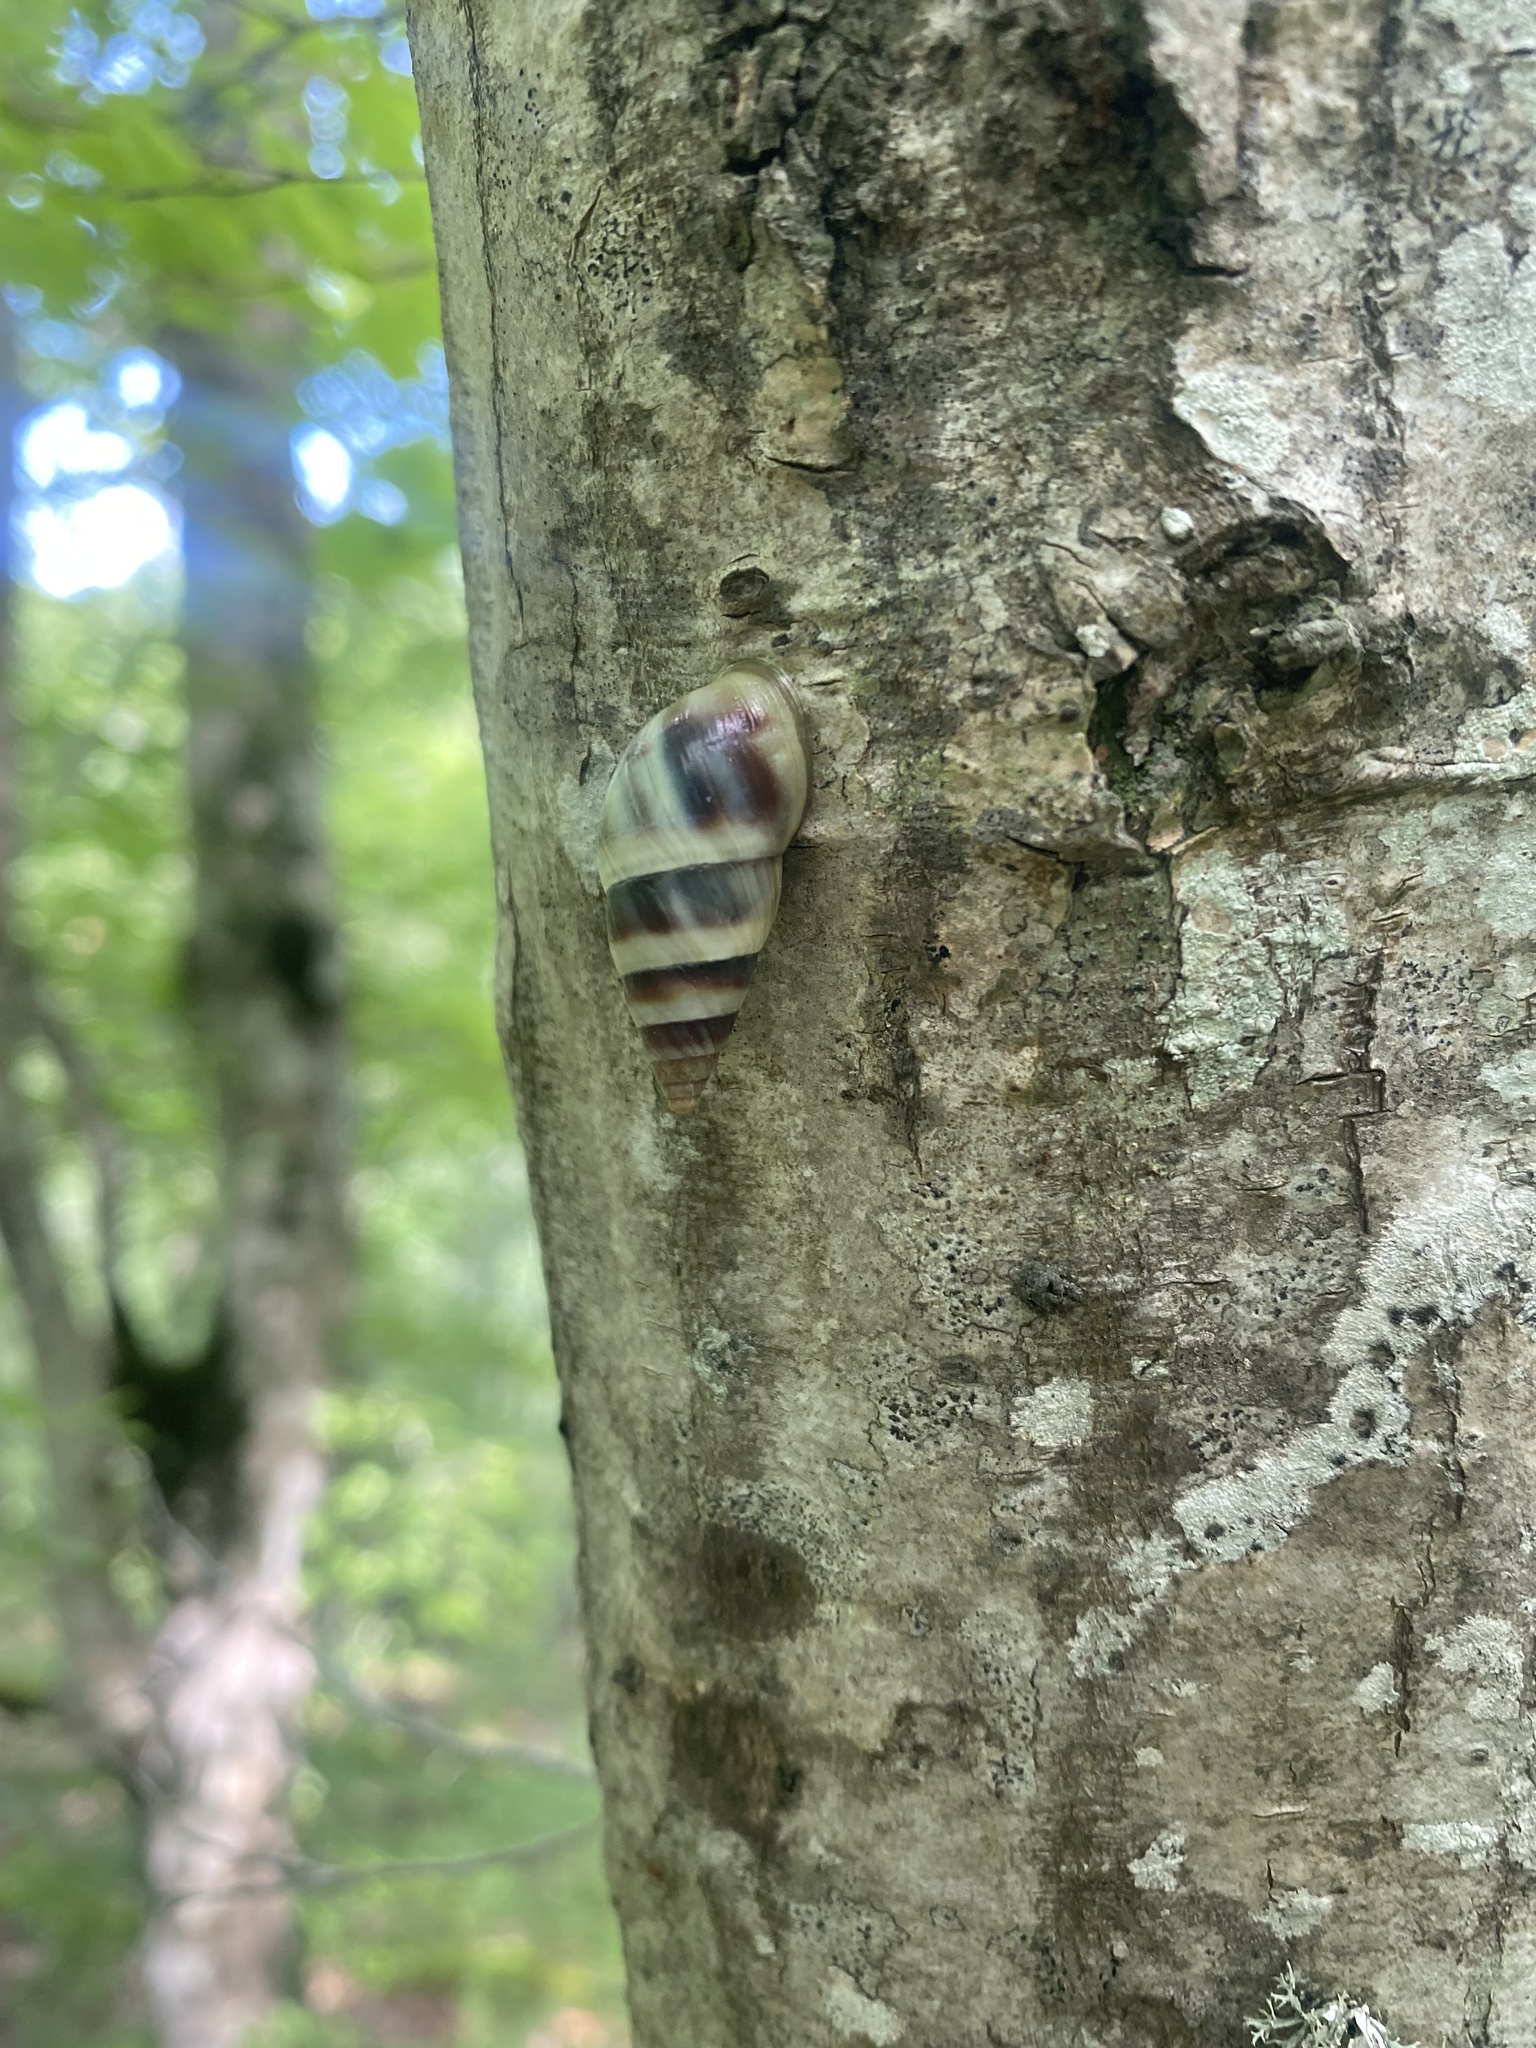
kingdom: Animalia
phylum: Mollusca
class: Gastropoda
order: Stylommatophora
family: Enidae
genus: Caucasicola
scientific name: Caucasicola raddei
